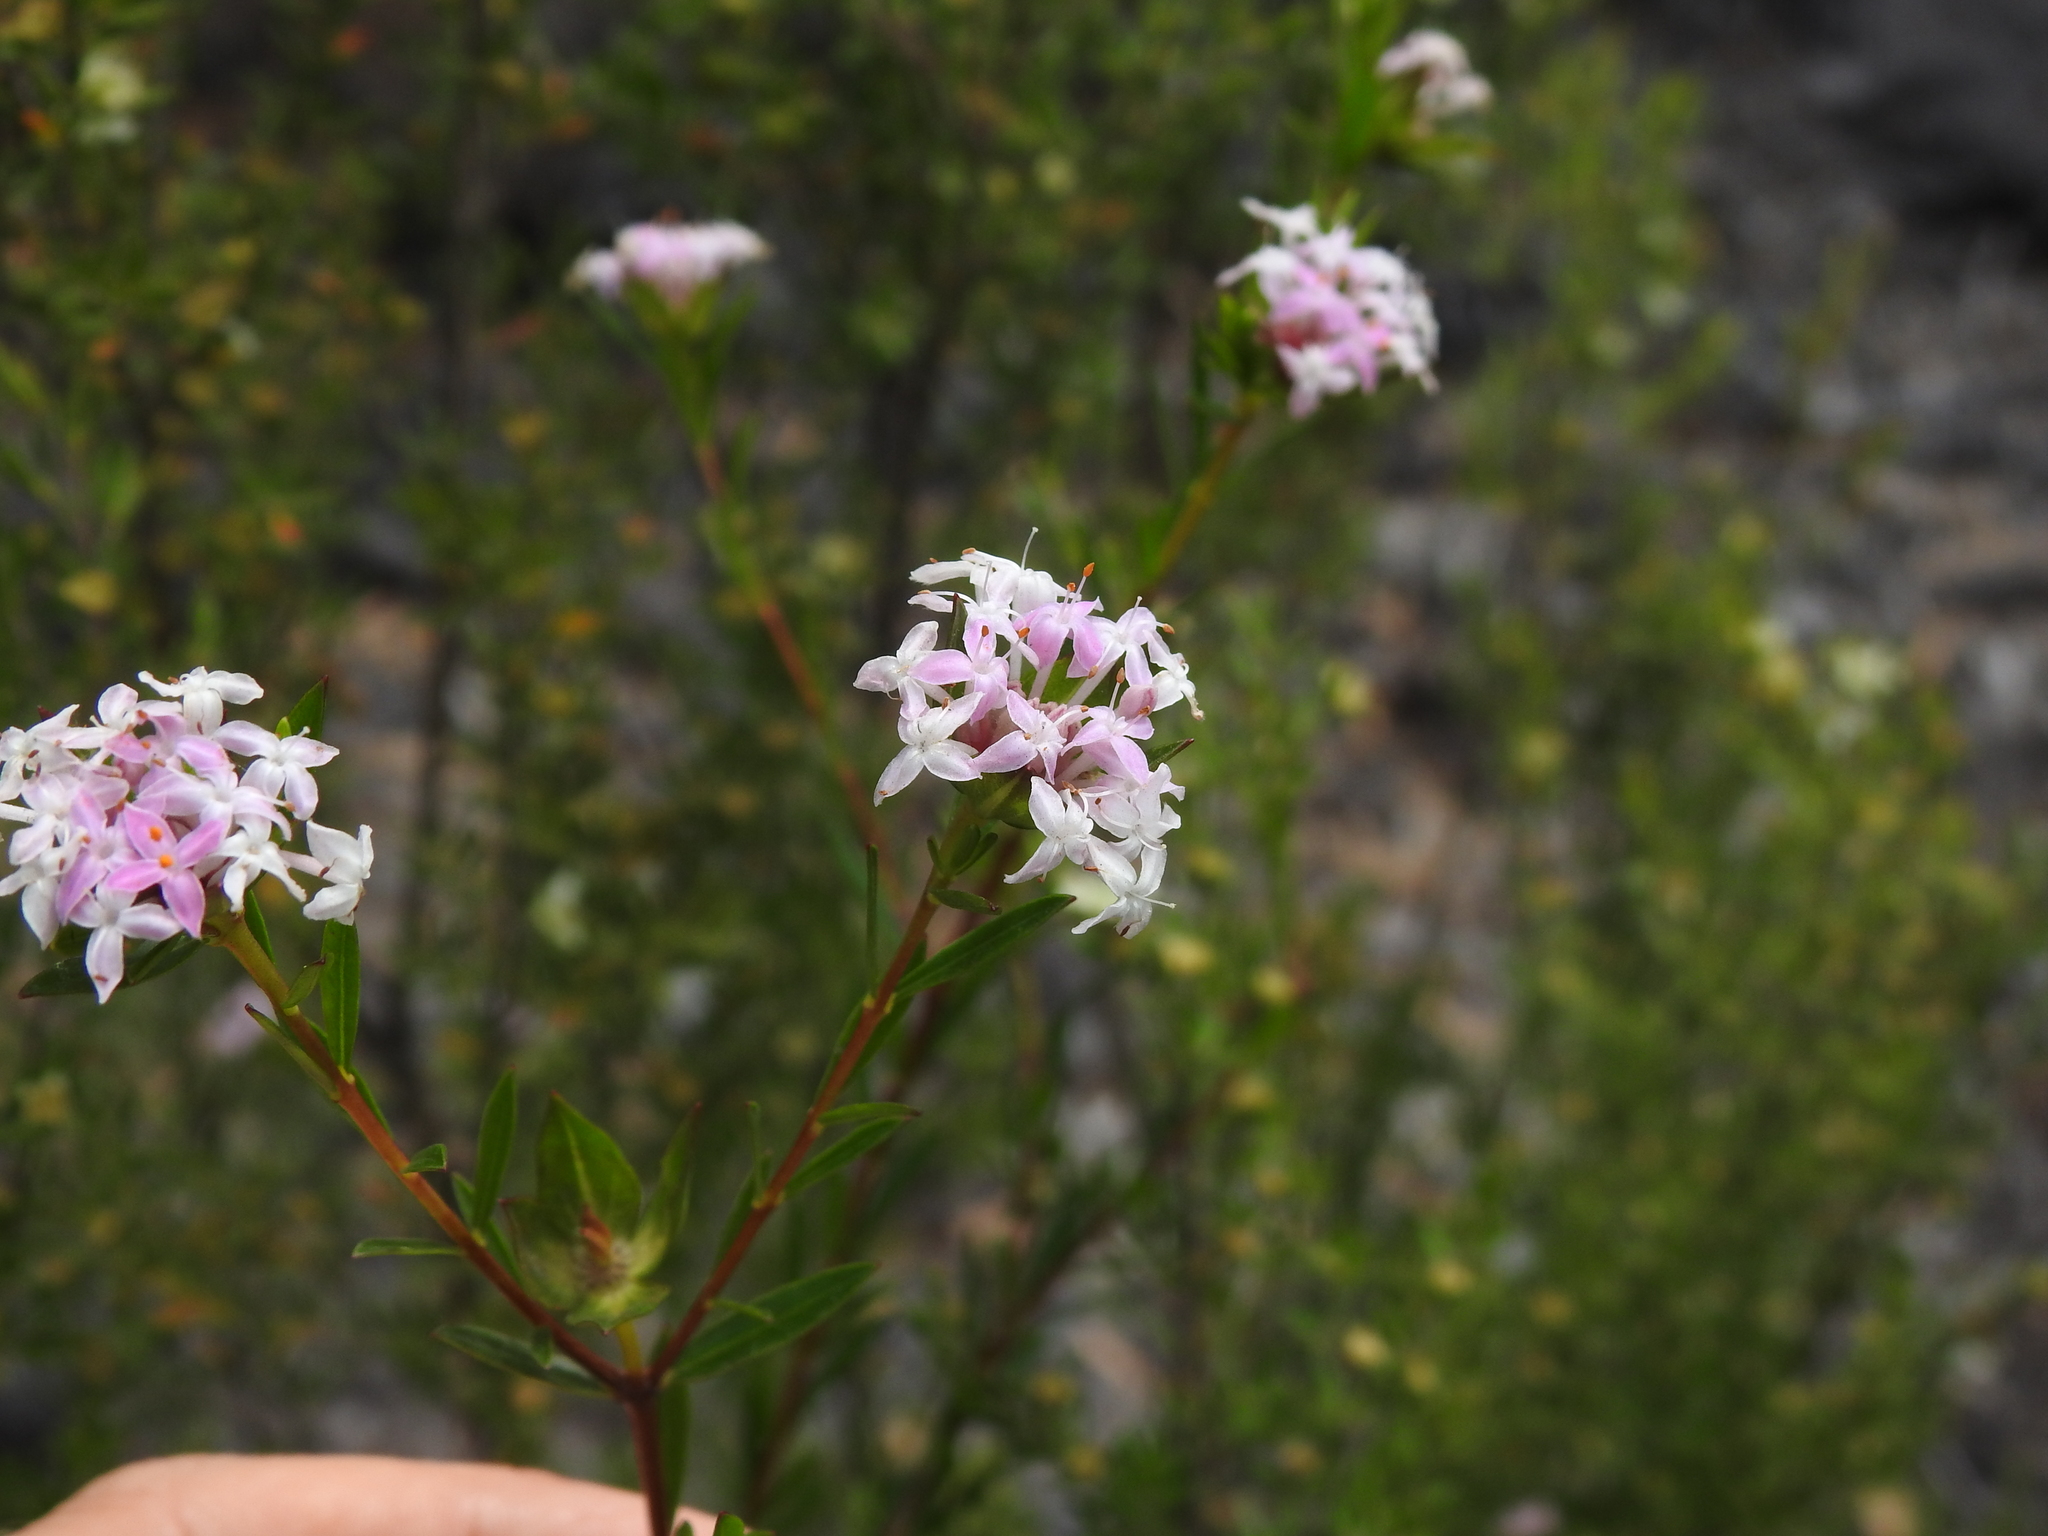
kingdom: Plantae
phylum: Tracheophyta
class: Magnoliopsida
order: Malvales
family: Thymelaeaceae
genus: Pimelea
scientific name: Pimelea linifolia
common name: Queen-of-the-bush
